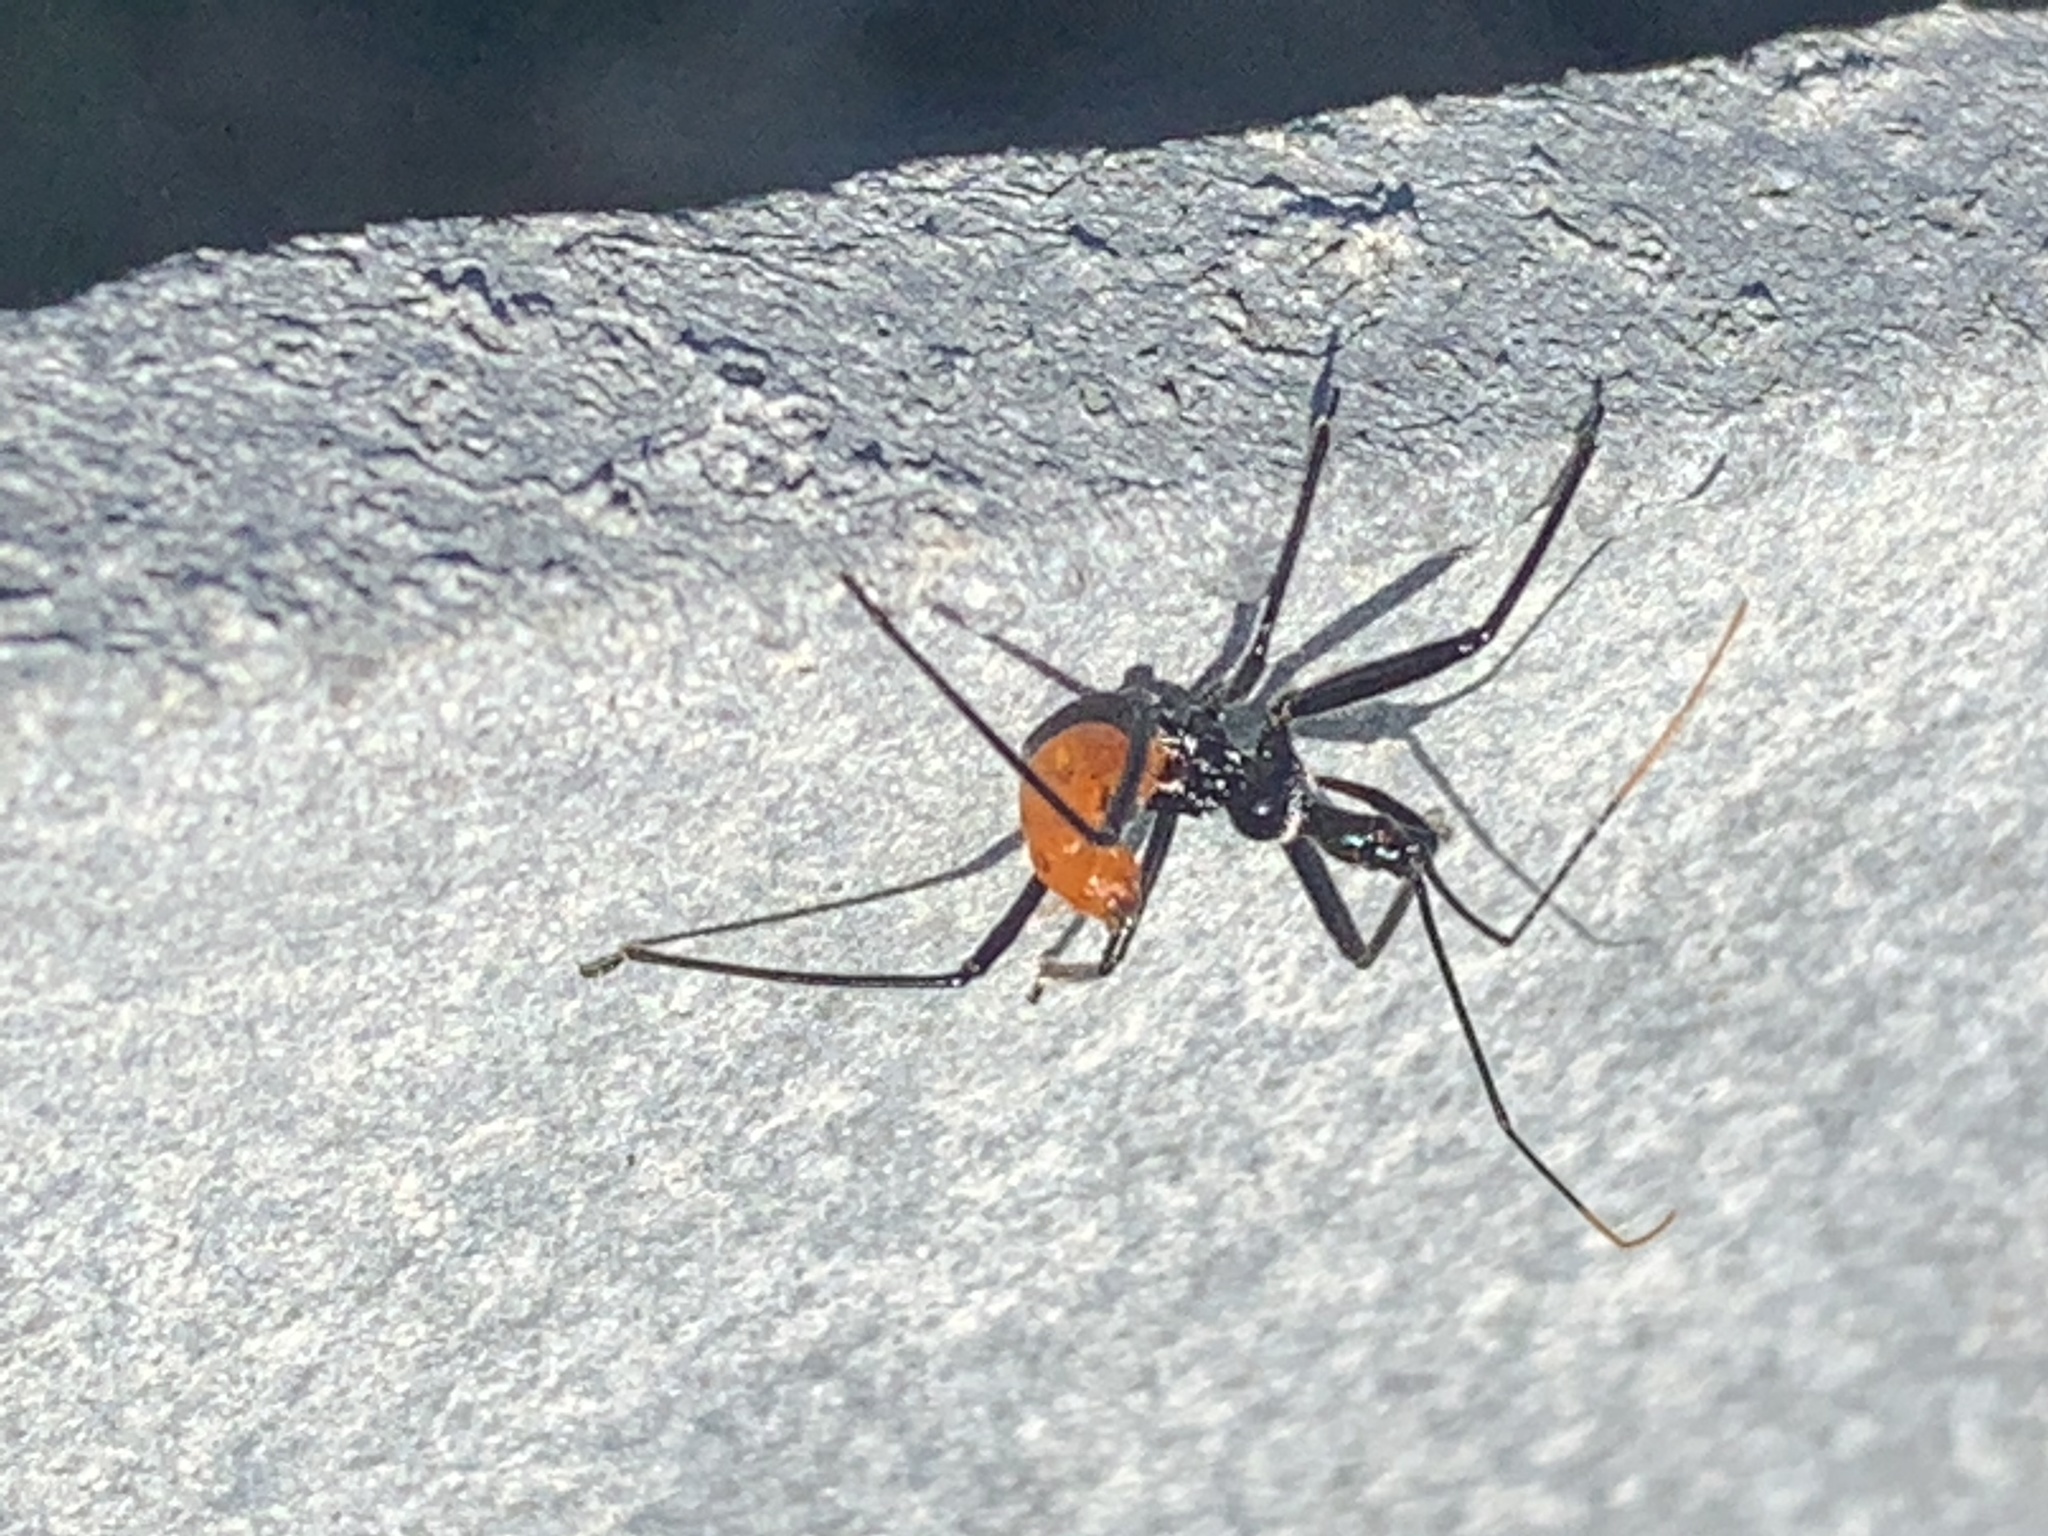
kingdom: Animalia
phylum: Arthropoda
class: Insecta
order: Hemiptera
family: Reduviidae
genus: Arilus
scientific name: Arilus cristatus
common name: North american wheel bug
